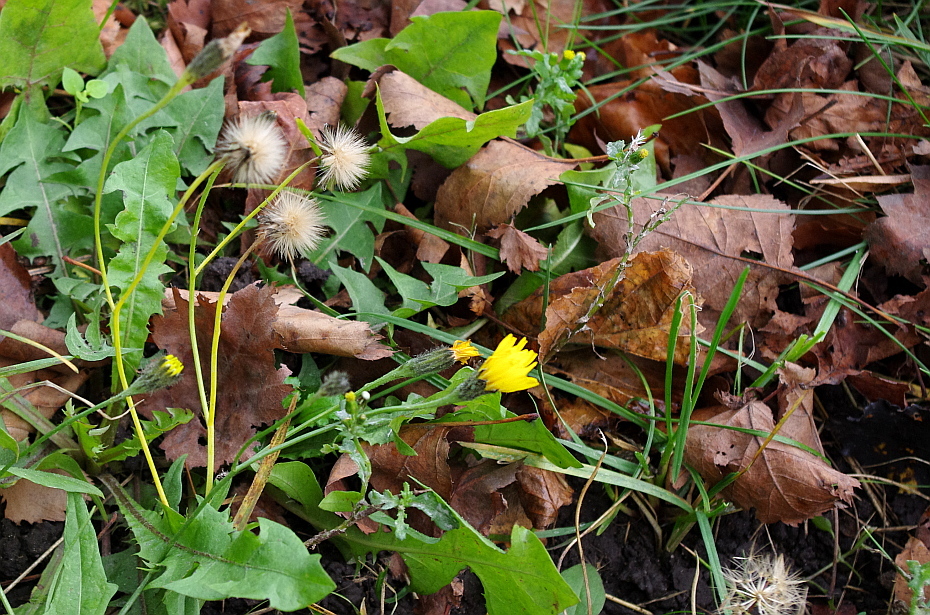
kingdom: Plantae
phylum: Tracheophyta
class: Magnoliopsida
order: Asterales
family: Asteraceae
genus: Scorzoneroides
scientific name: Scorzoneroides autumnalis
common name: Autumn hawkbit
